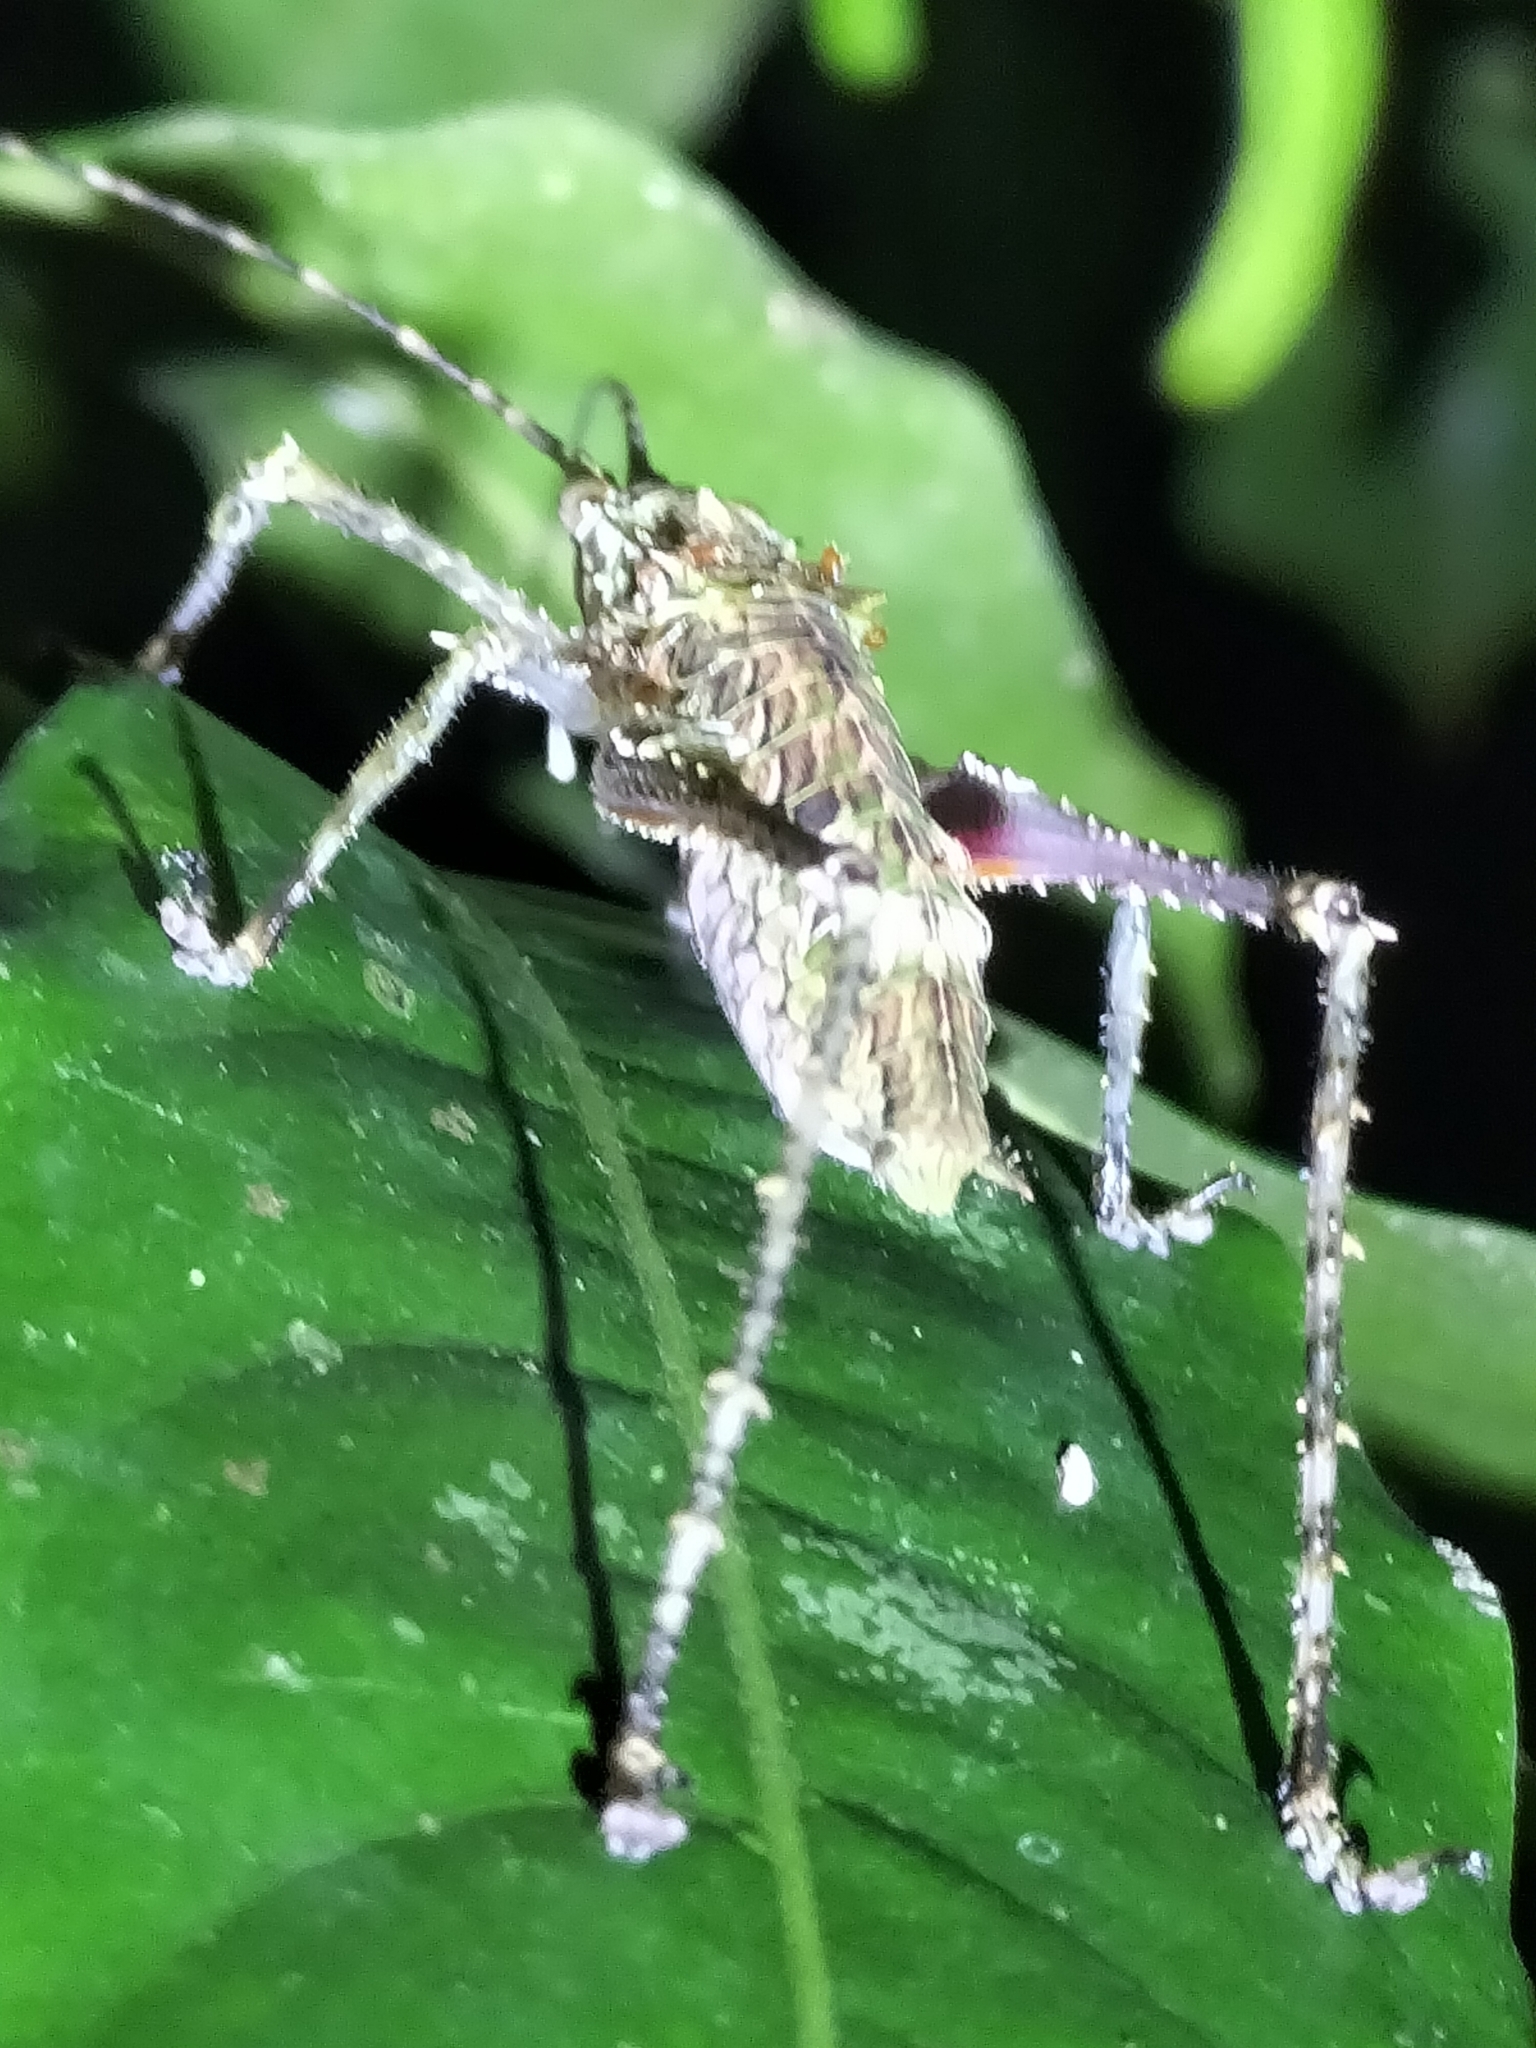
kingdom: Animalia
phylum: Arthropoda
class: Insecta
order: Orthoptera
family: Tettigoniidae
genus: Phricta
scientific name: Phricta spinosa
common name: Giant spiny forest katydid
